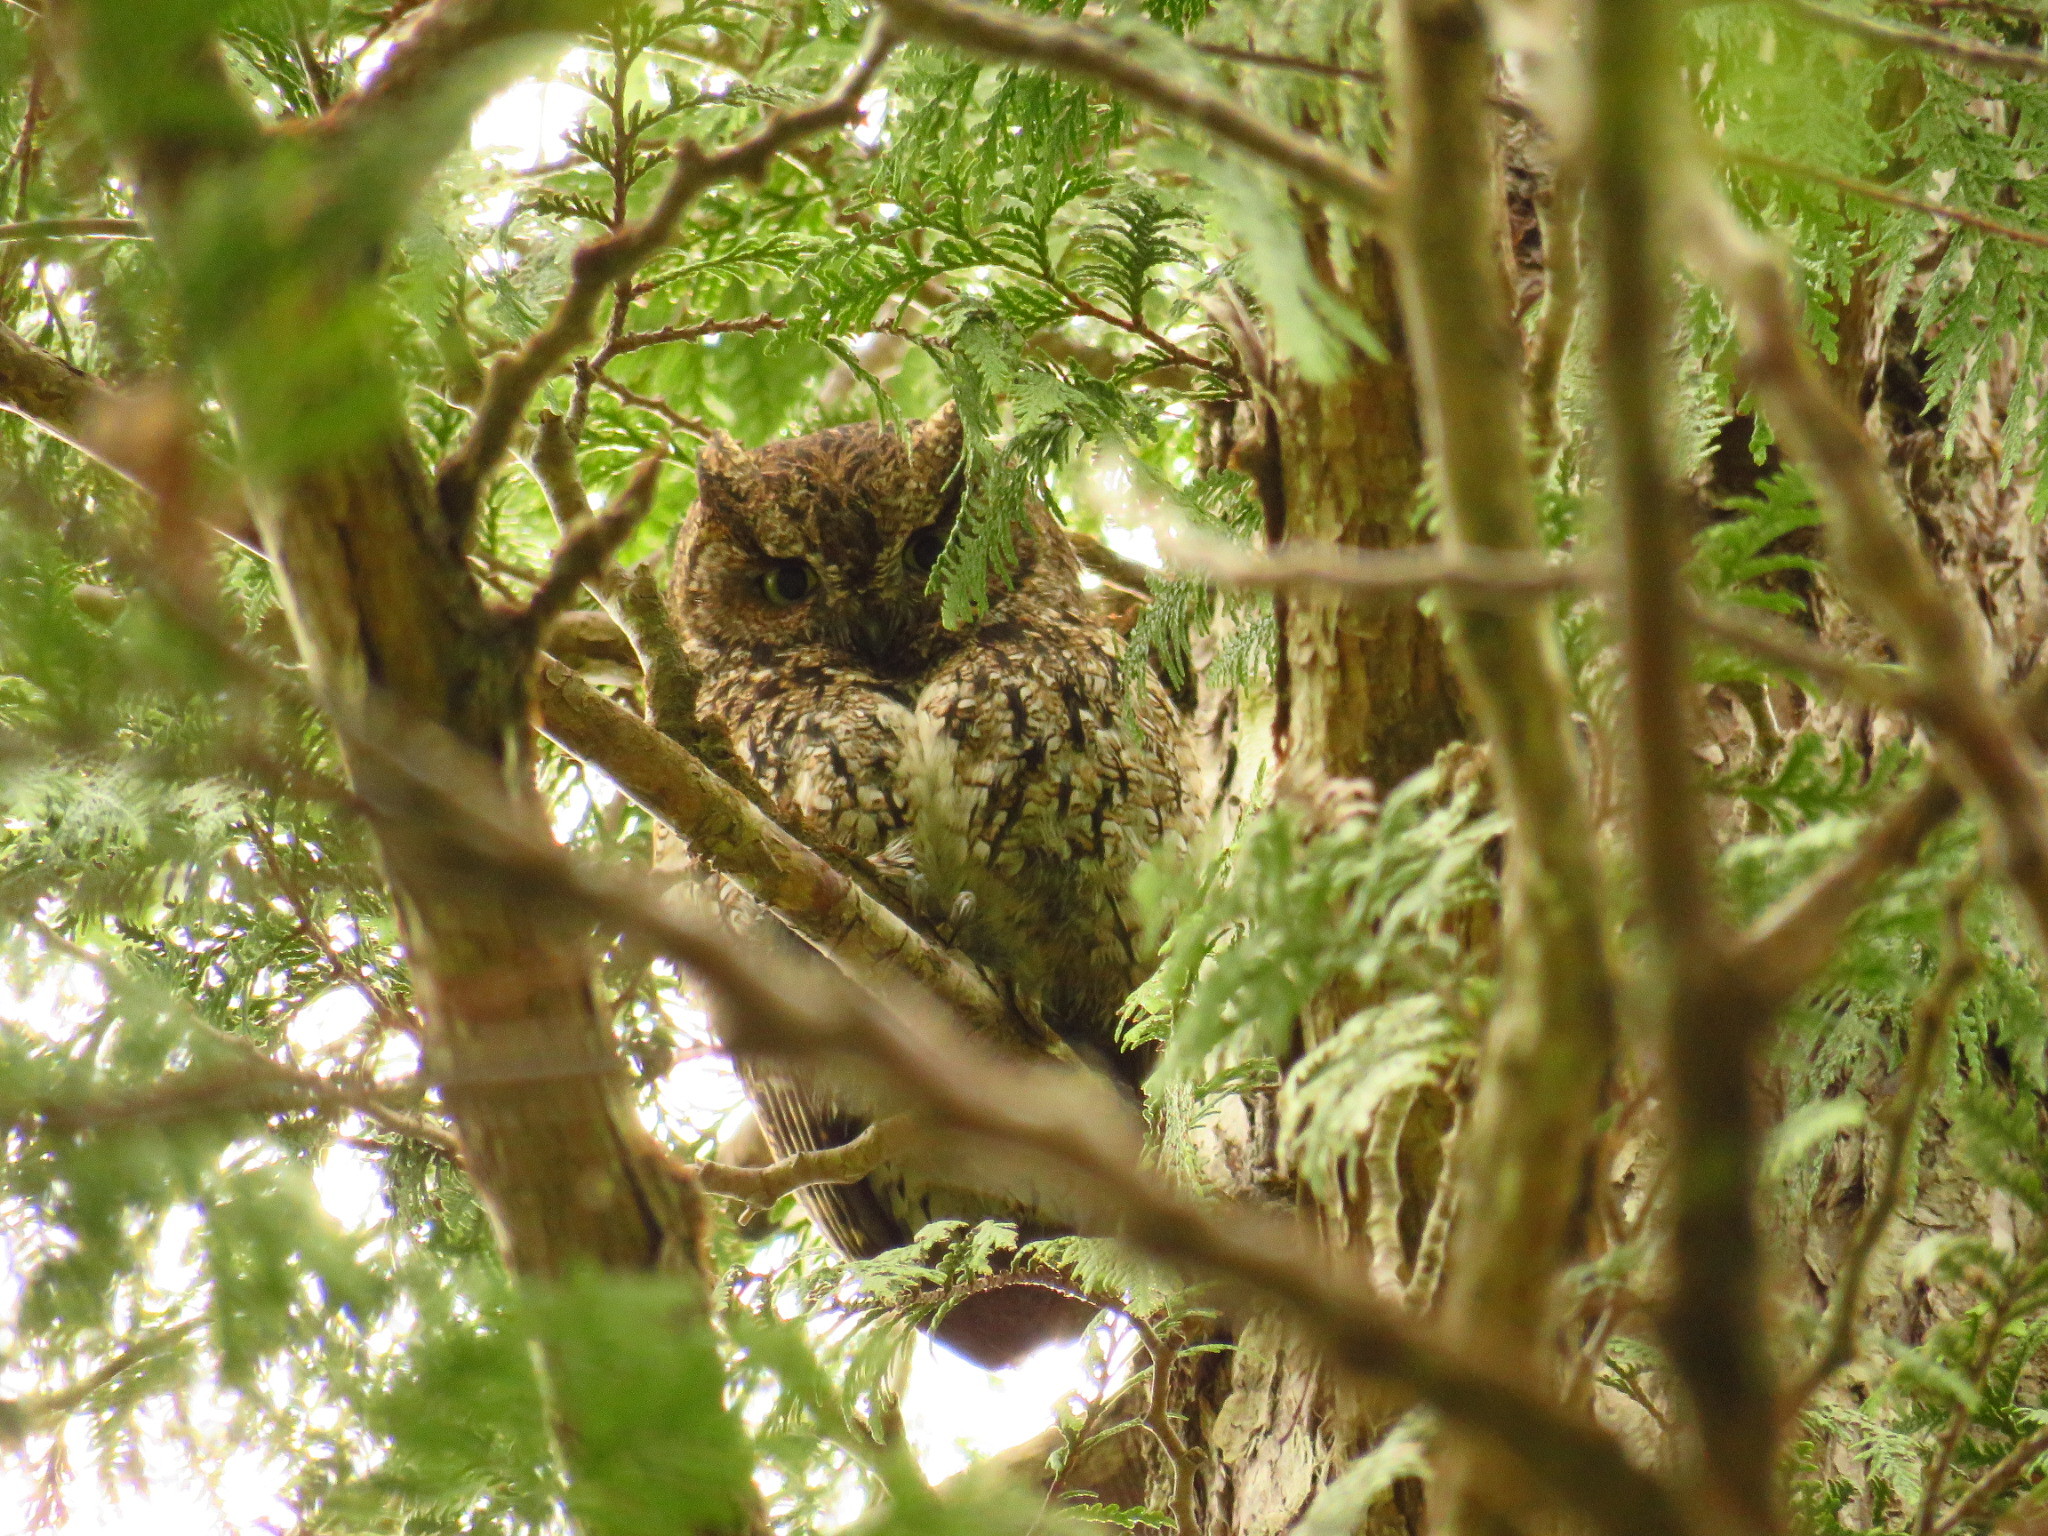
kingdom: Animalia
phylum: Chordata
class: Aves
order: Strigiformes
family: Strigidae
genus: Megascops
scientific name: Megascops kennicottii
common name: Western screech-owl
